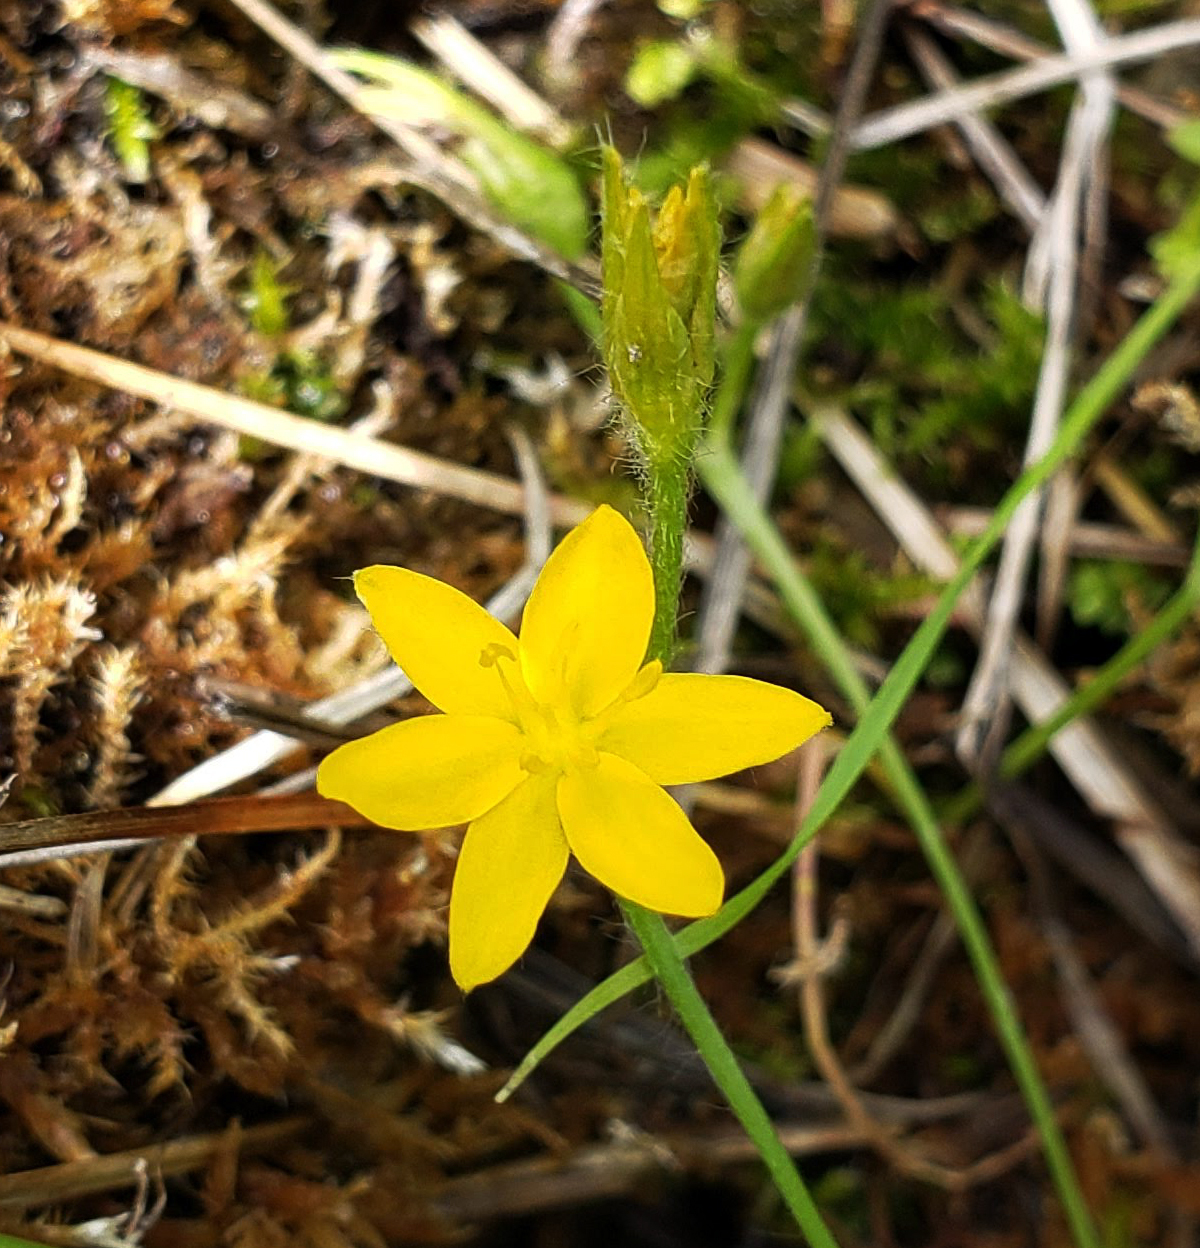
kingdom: Plantae
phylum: Tracheophyta
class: Liliopsida
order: Asparagales
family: Hypoxidaceae
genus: Hypoxis
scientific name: Hypoxis hirsuta
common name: Common goldstar
